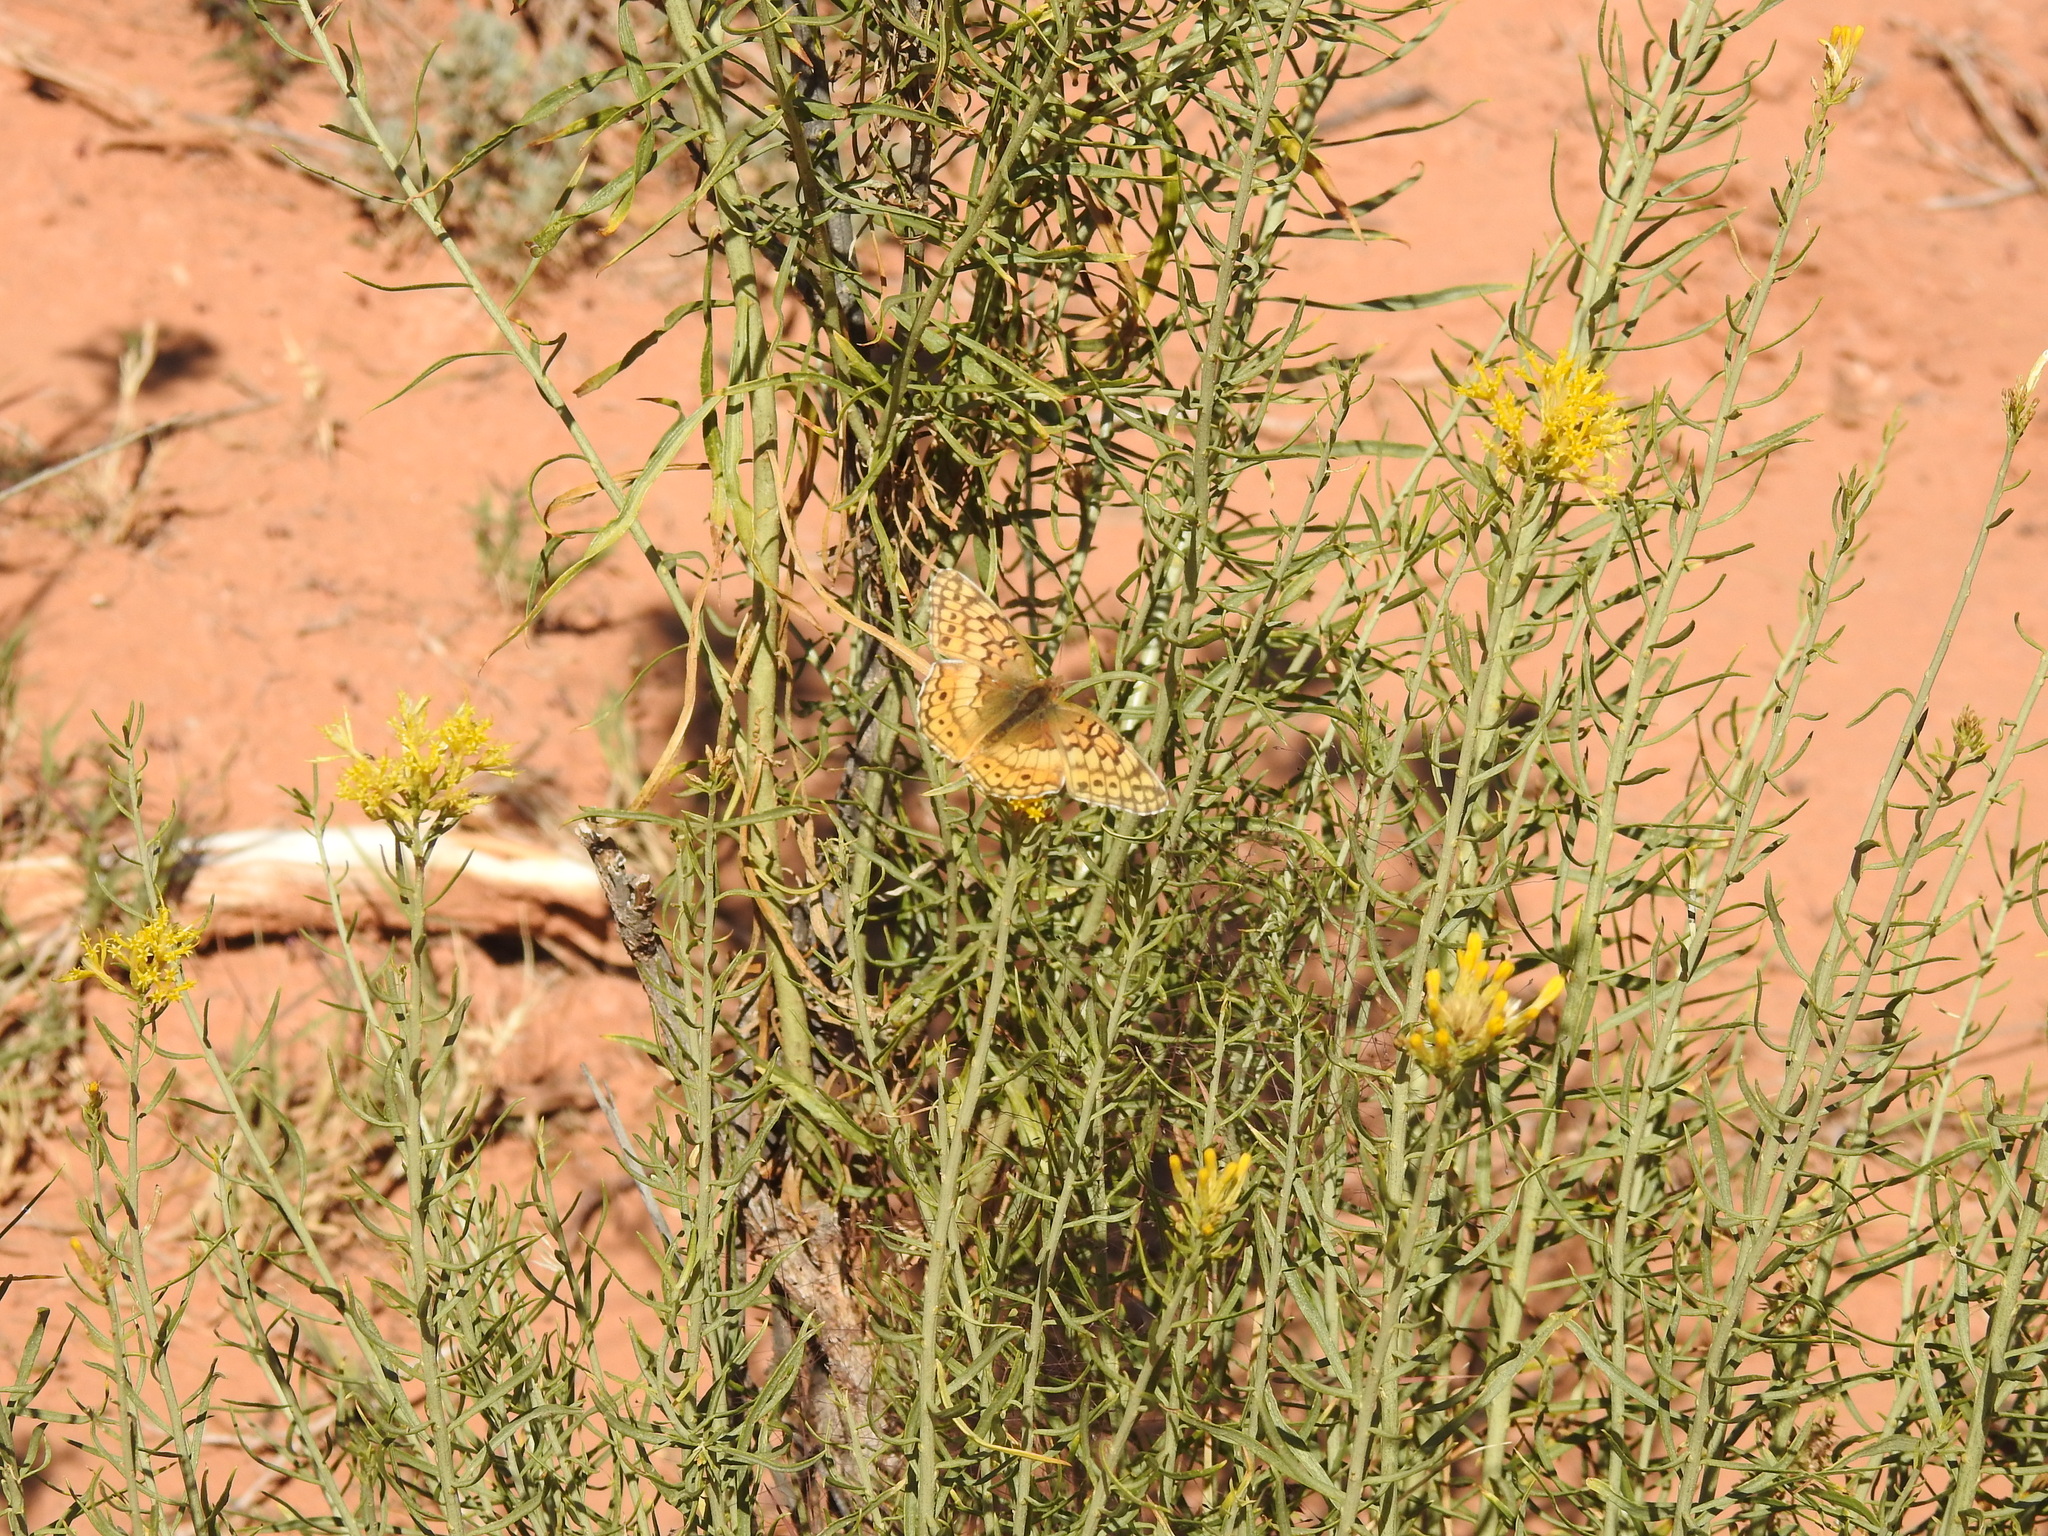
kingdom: Animalia
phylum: Arthropoda
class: Insecta
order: Lepidoptera
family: Nymphalidae
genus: Euptoieta
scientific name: Euptoieta claudia
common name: Variegated fritillary
